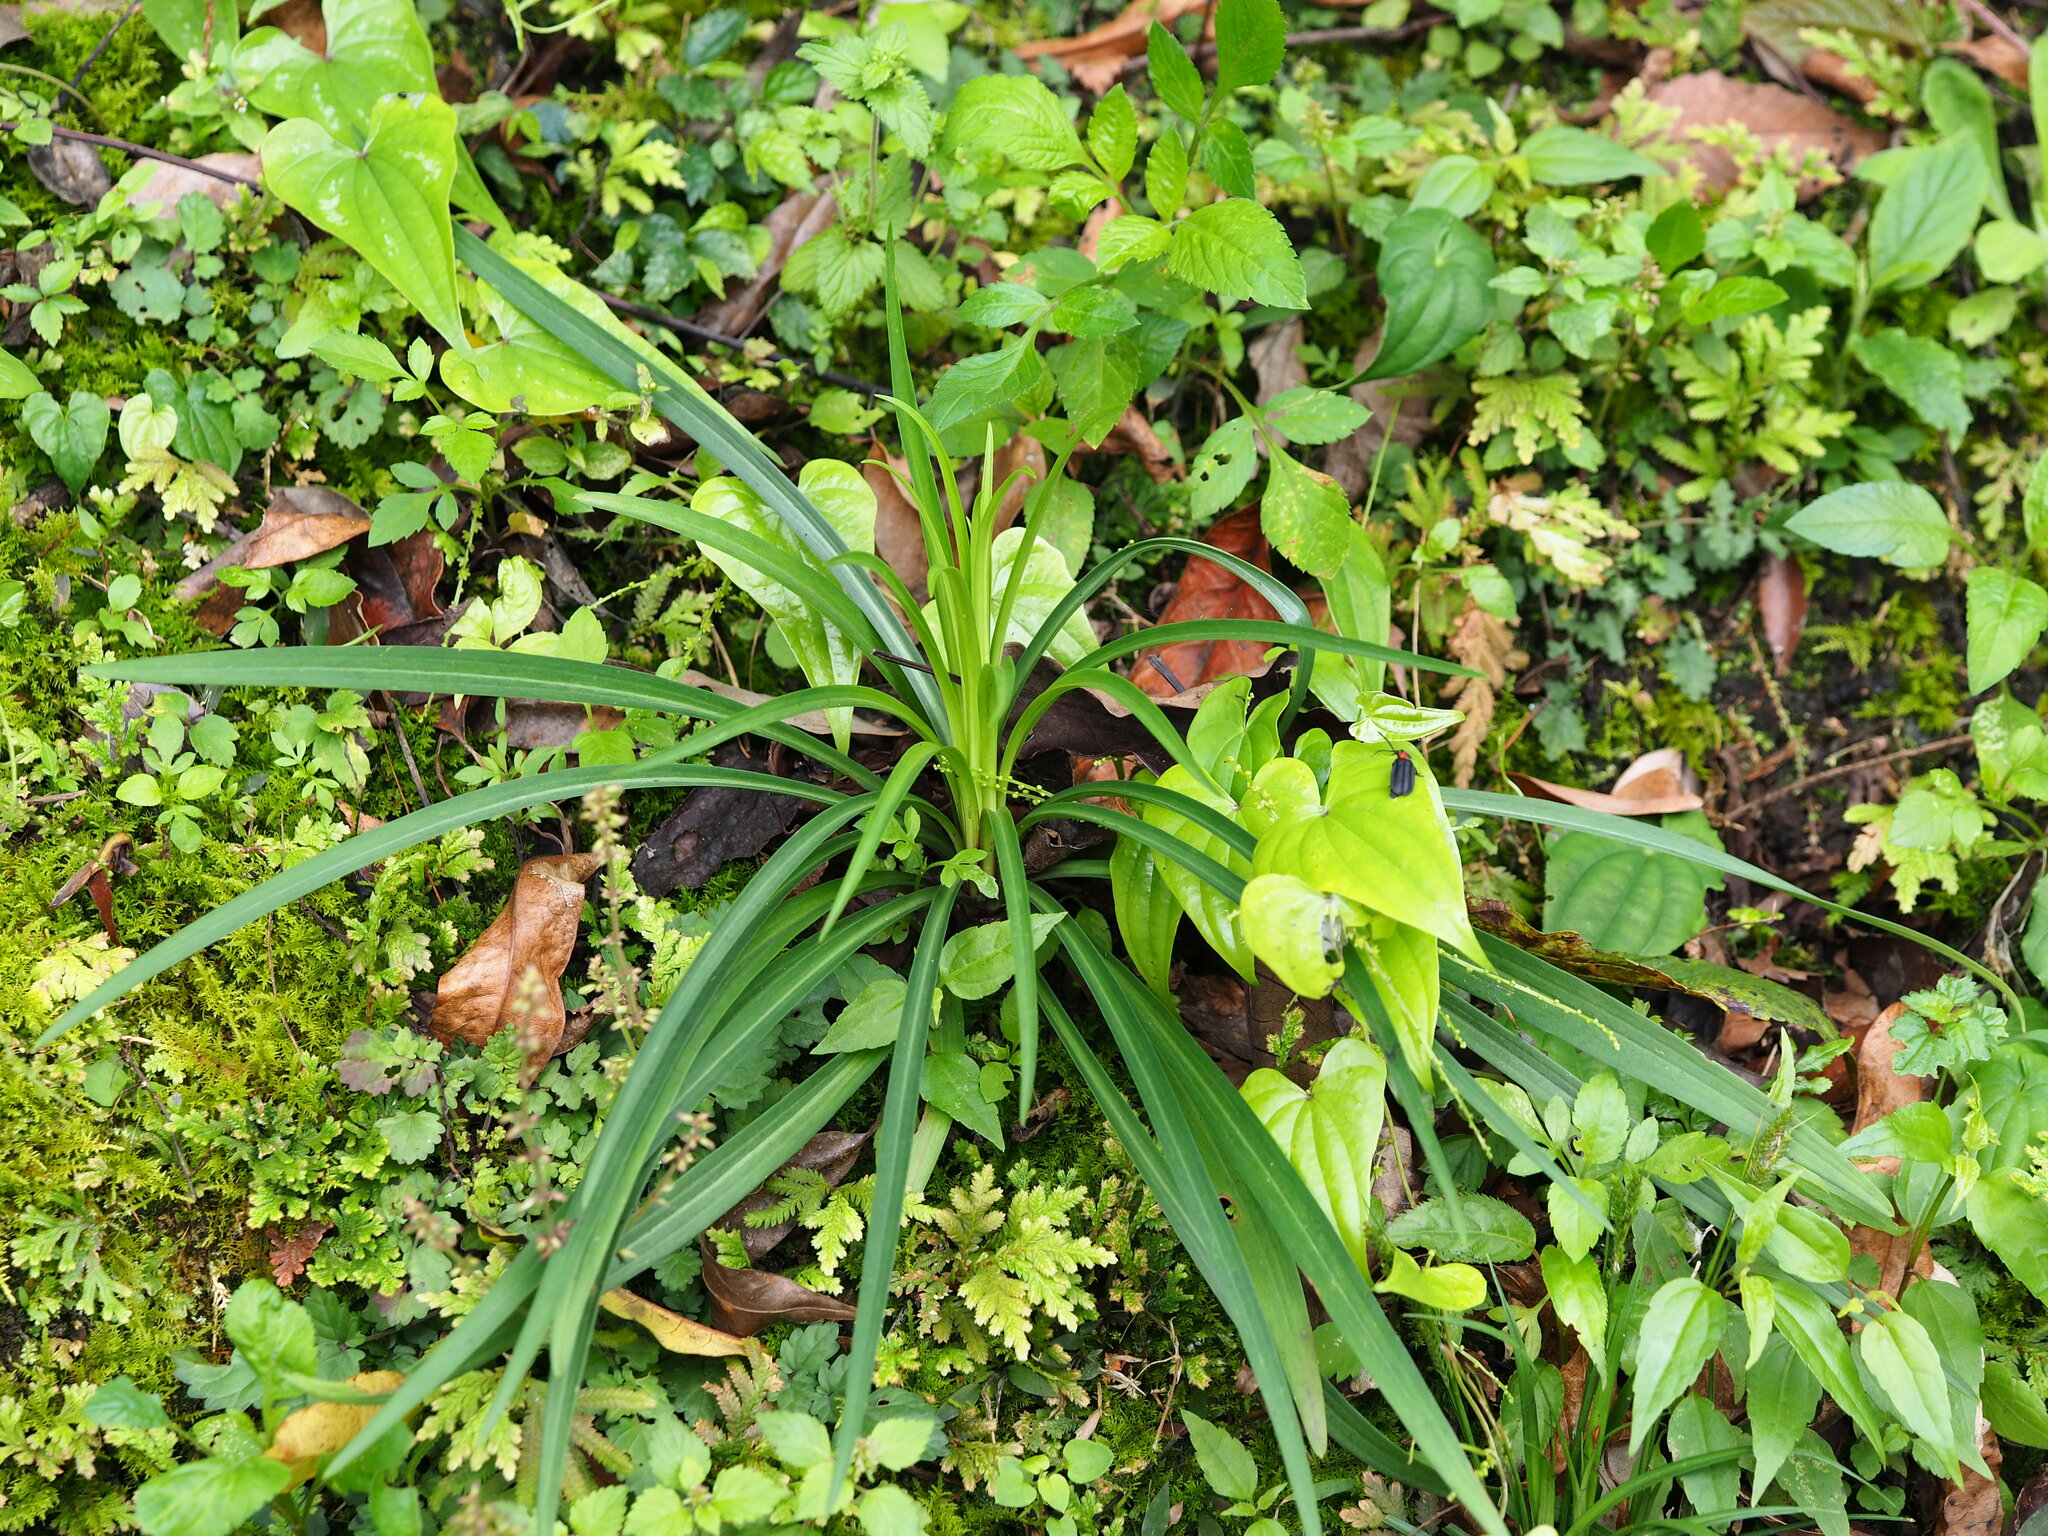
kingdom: Plantae
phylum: Tracheophyta
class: Liliopsida
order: Liliales
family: Liliaceae
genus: Lilium
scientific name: Lilium formosanum
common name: Formosa lily
